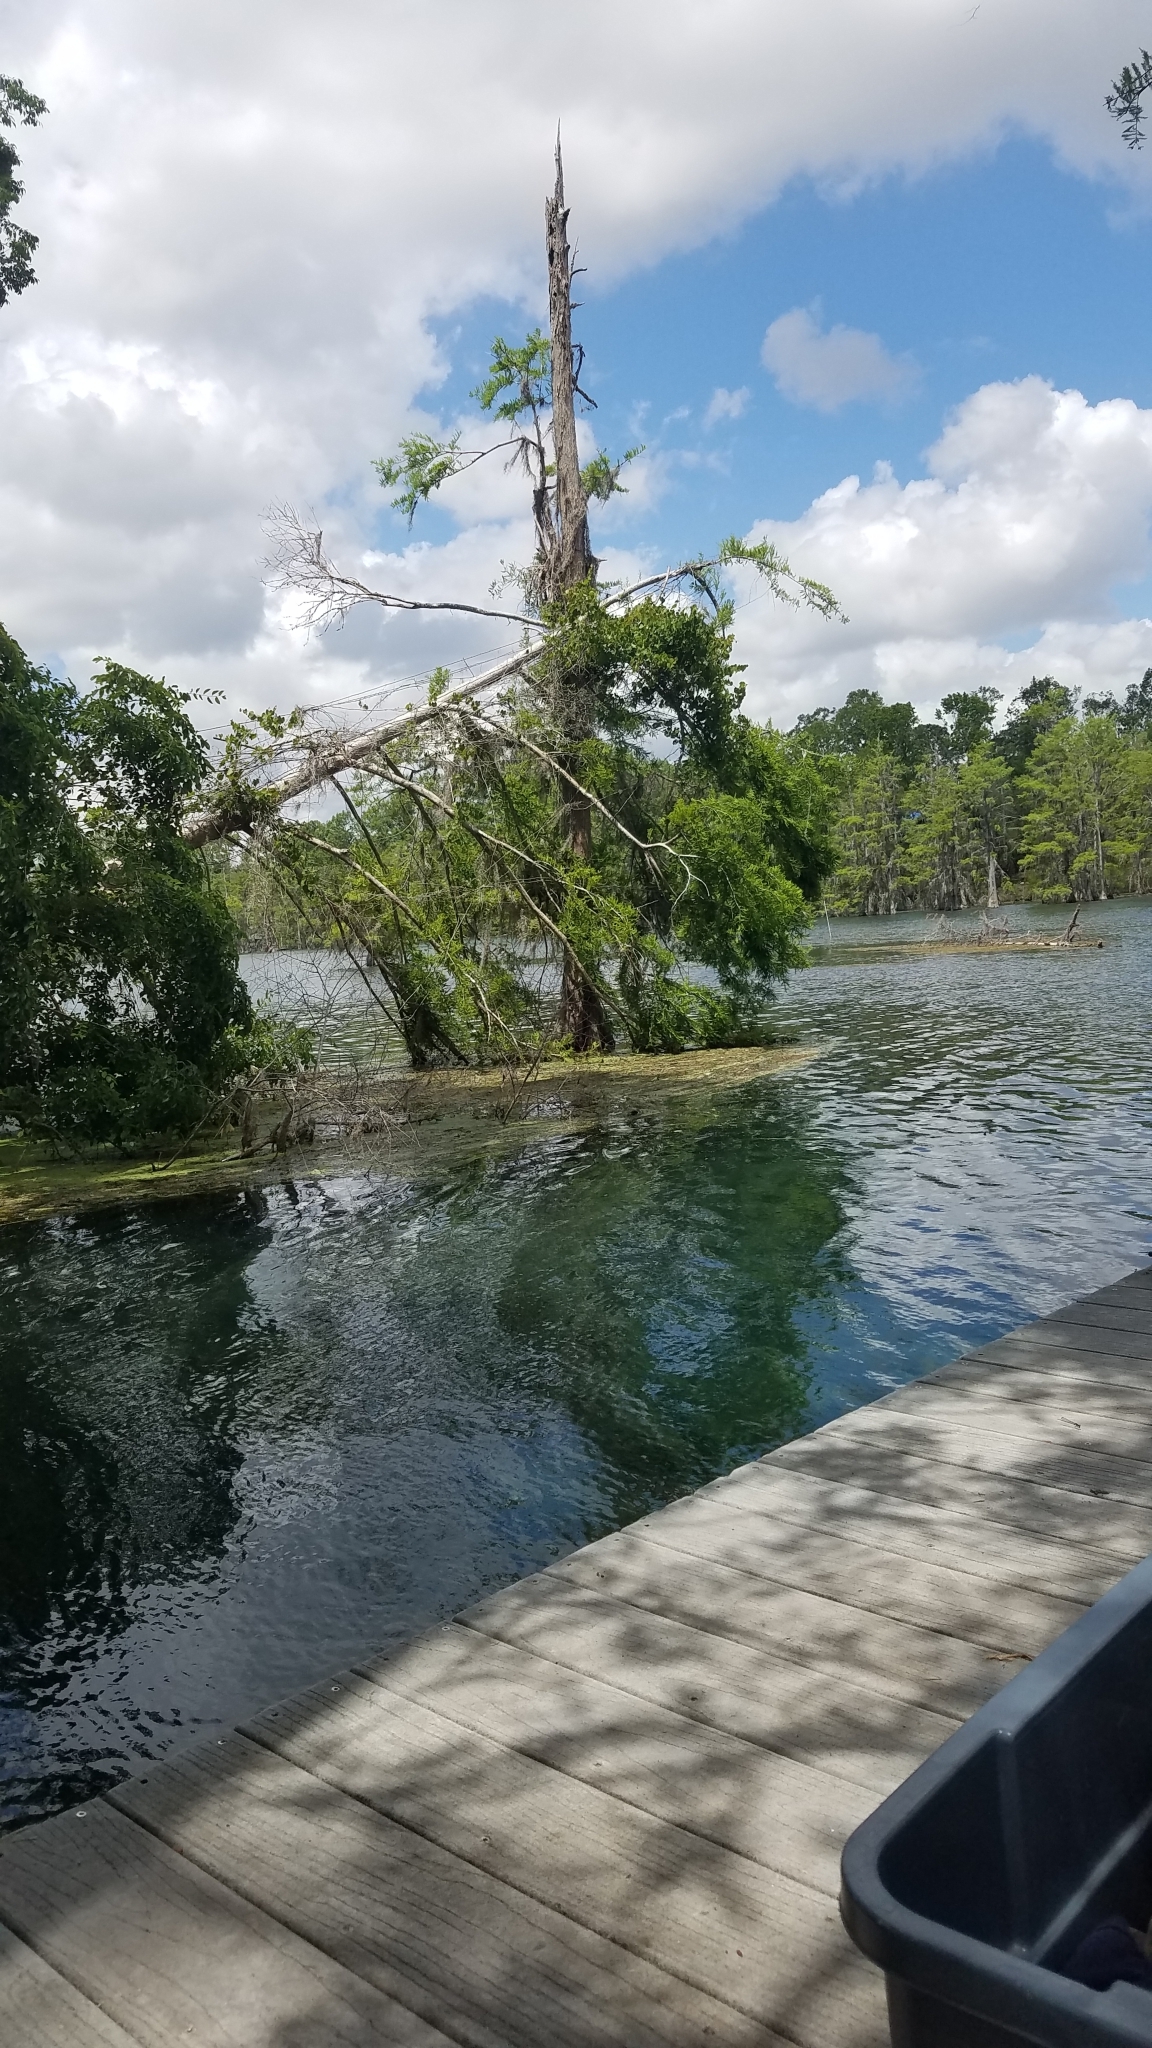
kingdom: Plantae
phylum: Tracheophyta
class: Pinopsida
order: Pinales
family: Cupressaceae
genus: Taxodium
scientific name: Taxodium distichum
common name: Bald cypress
